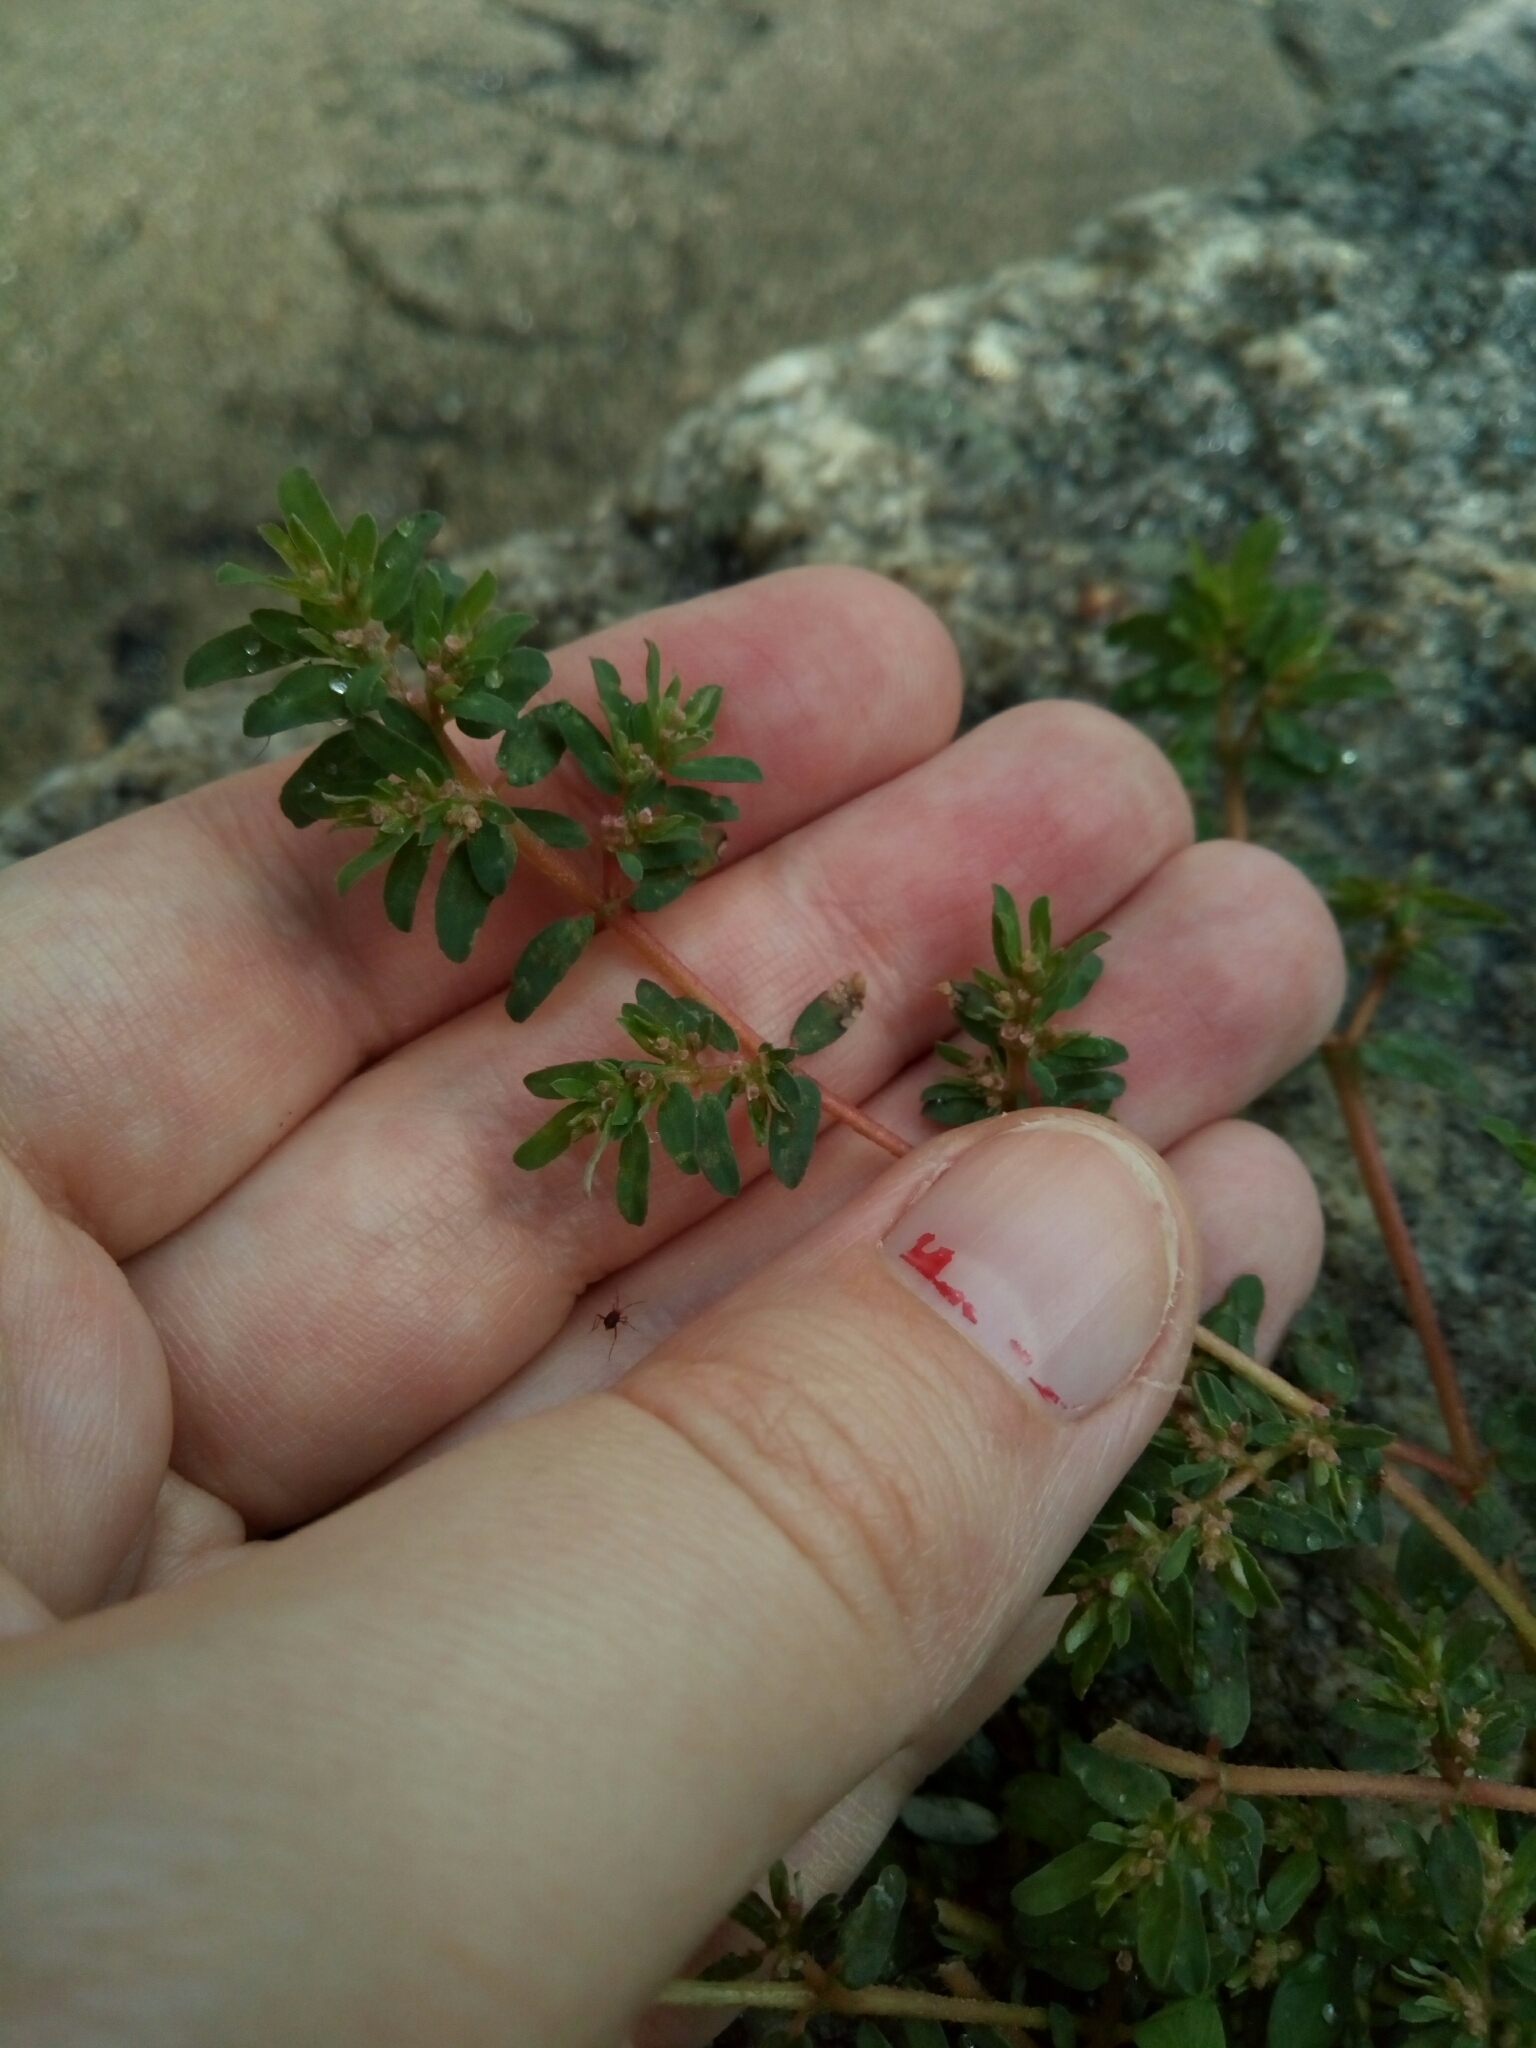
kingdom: Plantae
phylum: Tracheophyta
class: Magnoliopsida
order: Malpighiales
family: Euphorbiaceae
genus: Euphorbia
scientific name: Euphorbia maculata
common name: Spotted spurge
